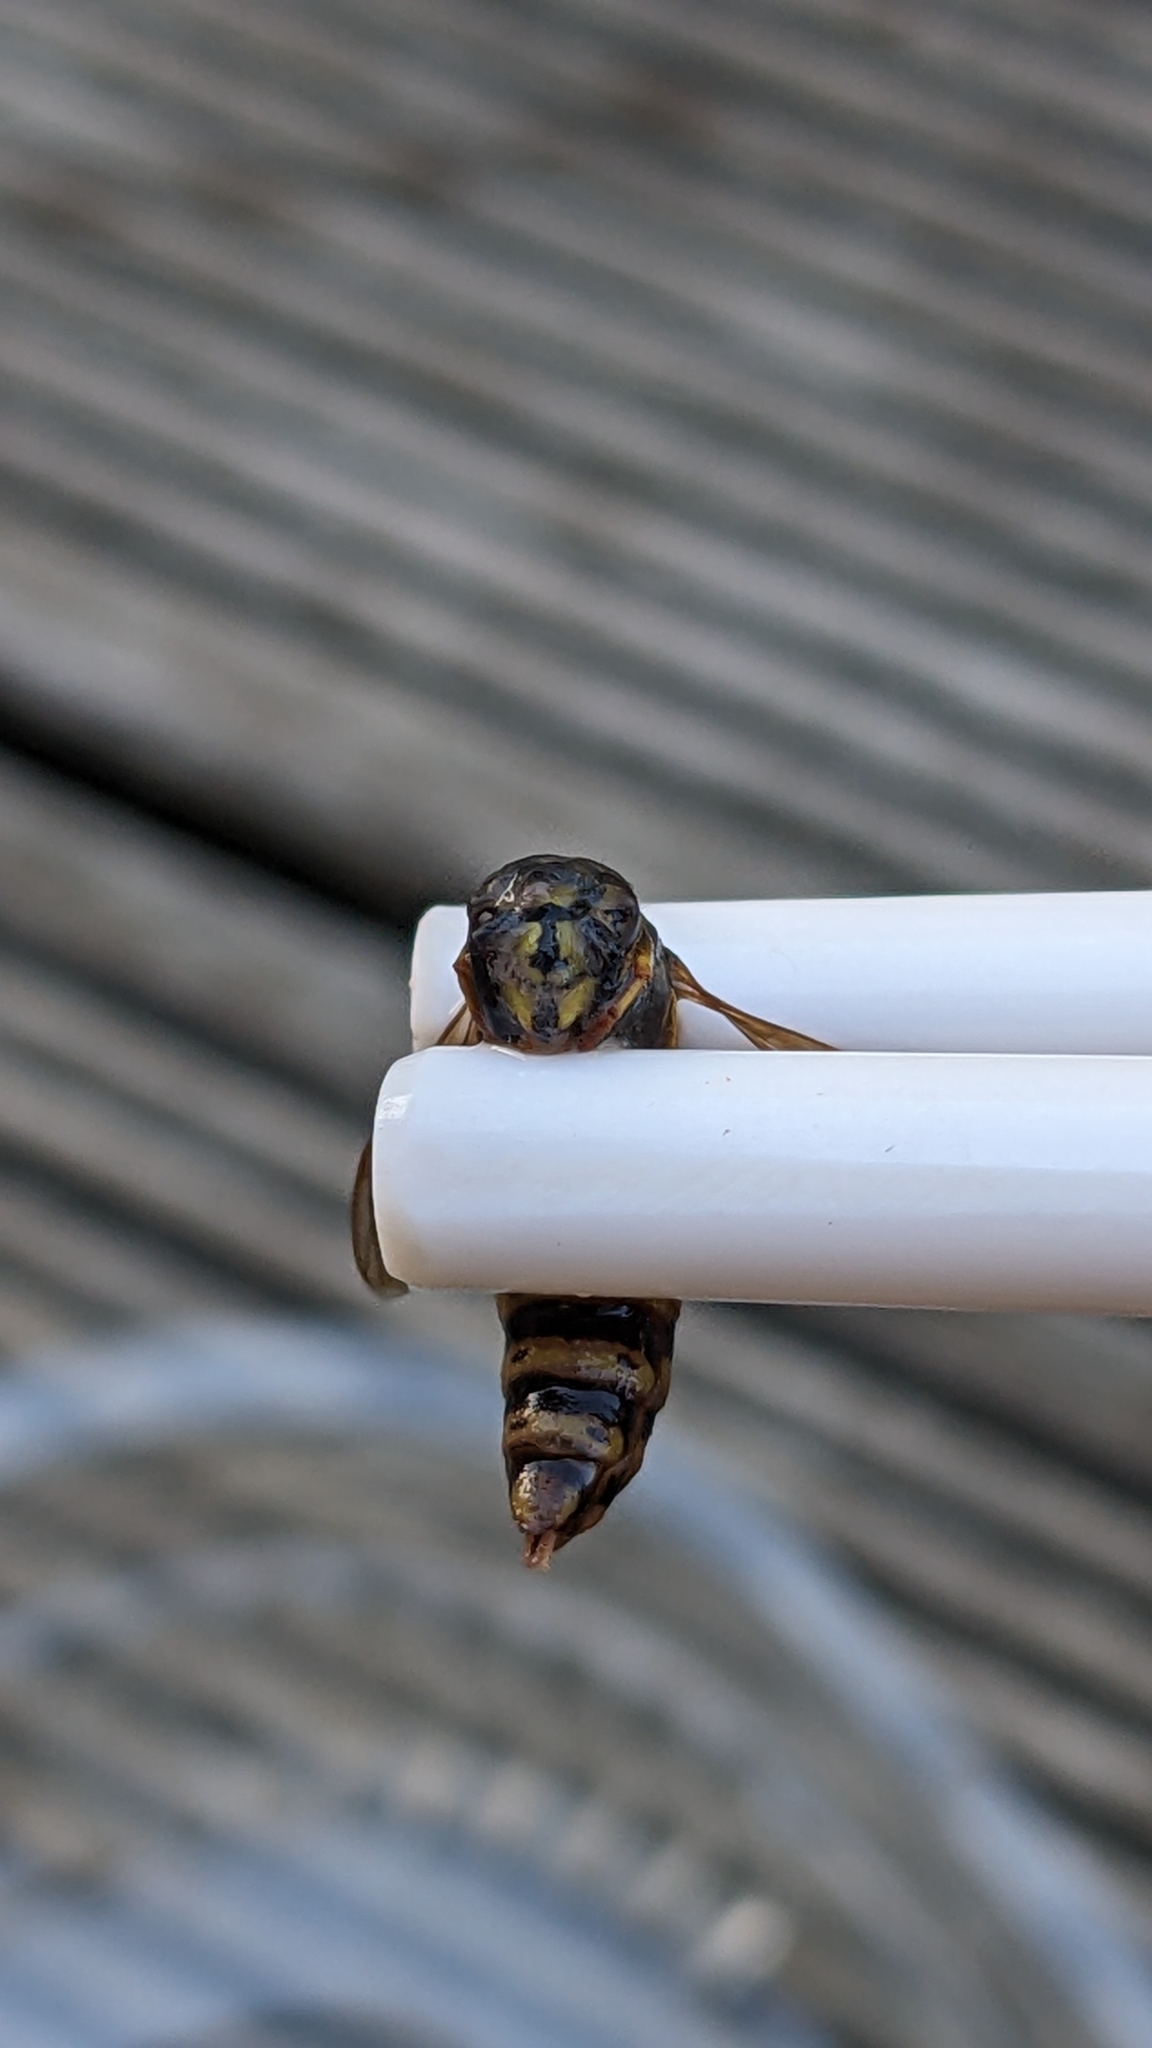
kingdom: Animalia
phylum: Arthropoda
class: Insecta
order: Hymenoptera
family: Vespidae
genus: Vespula
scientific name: Vespula vulgaris
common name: Common wasp
